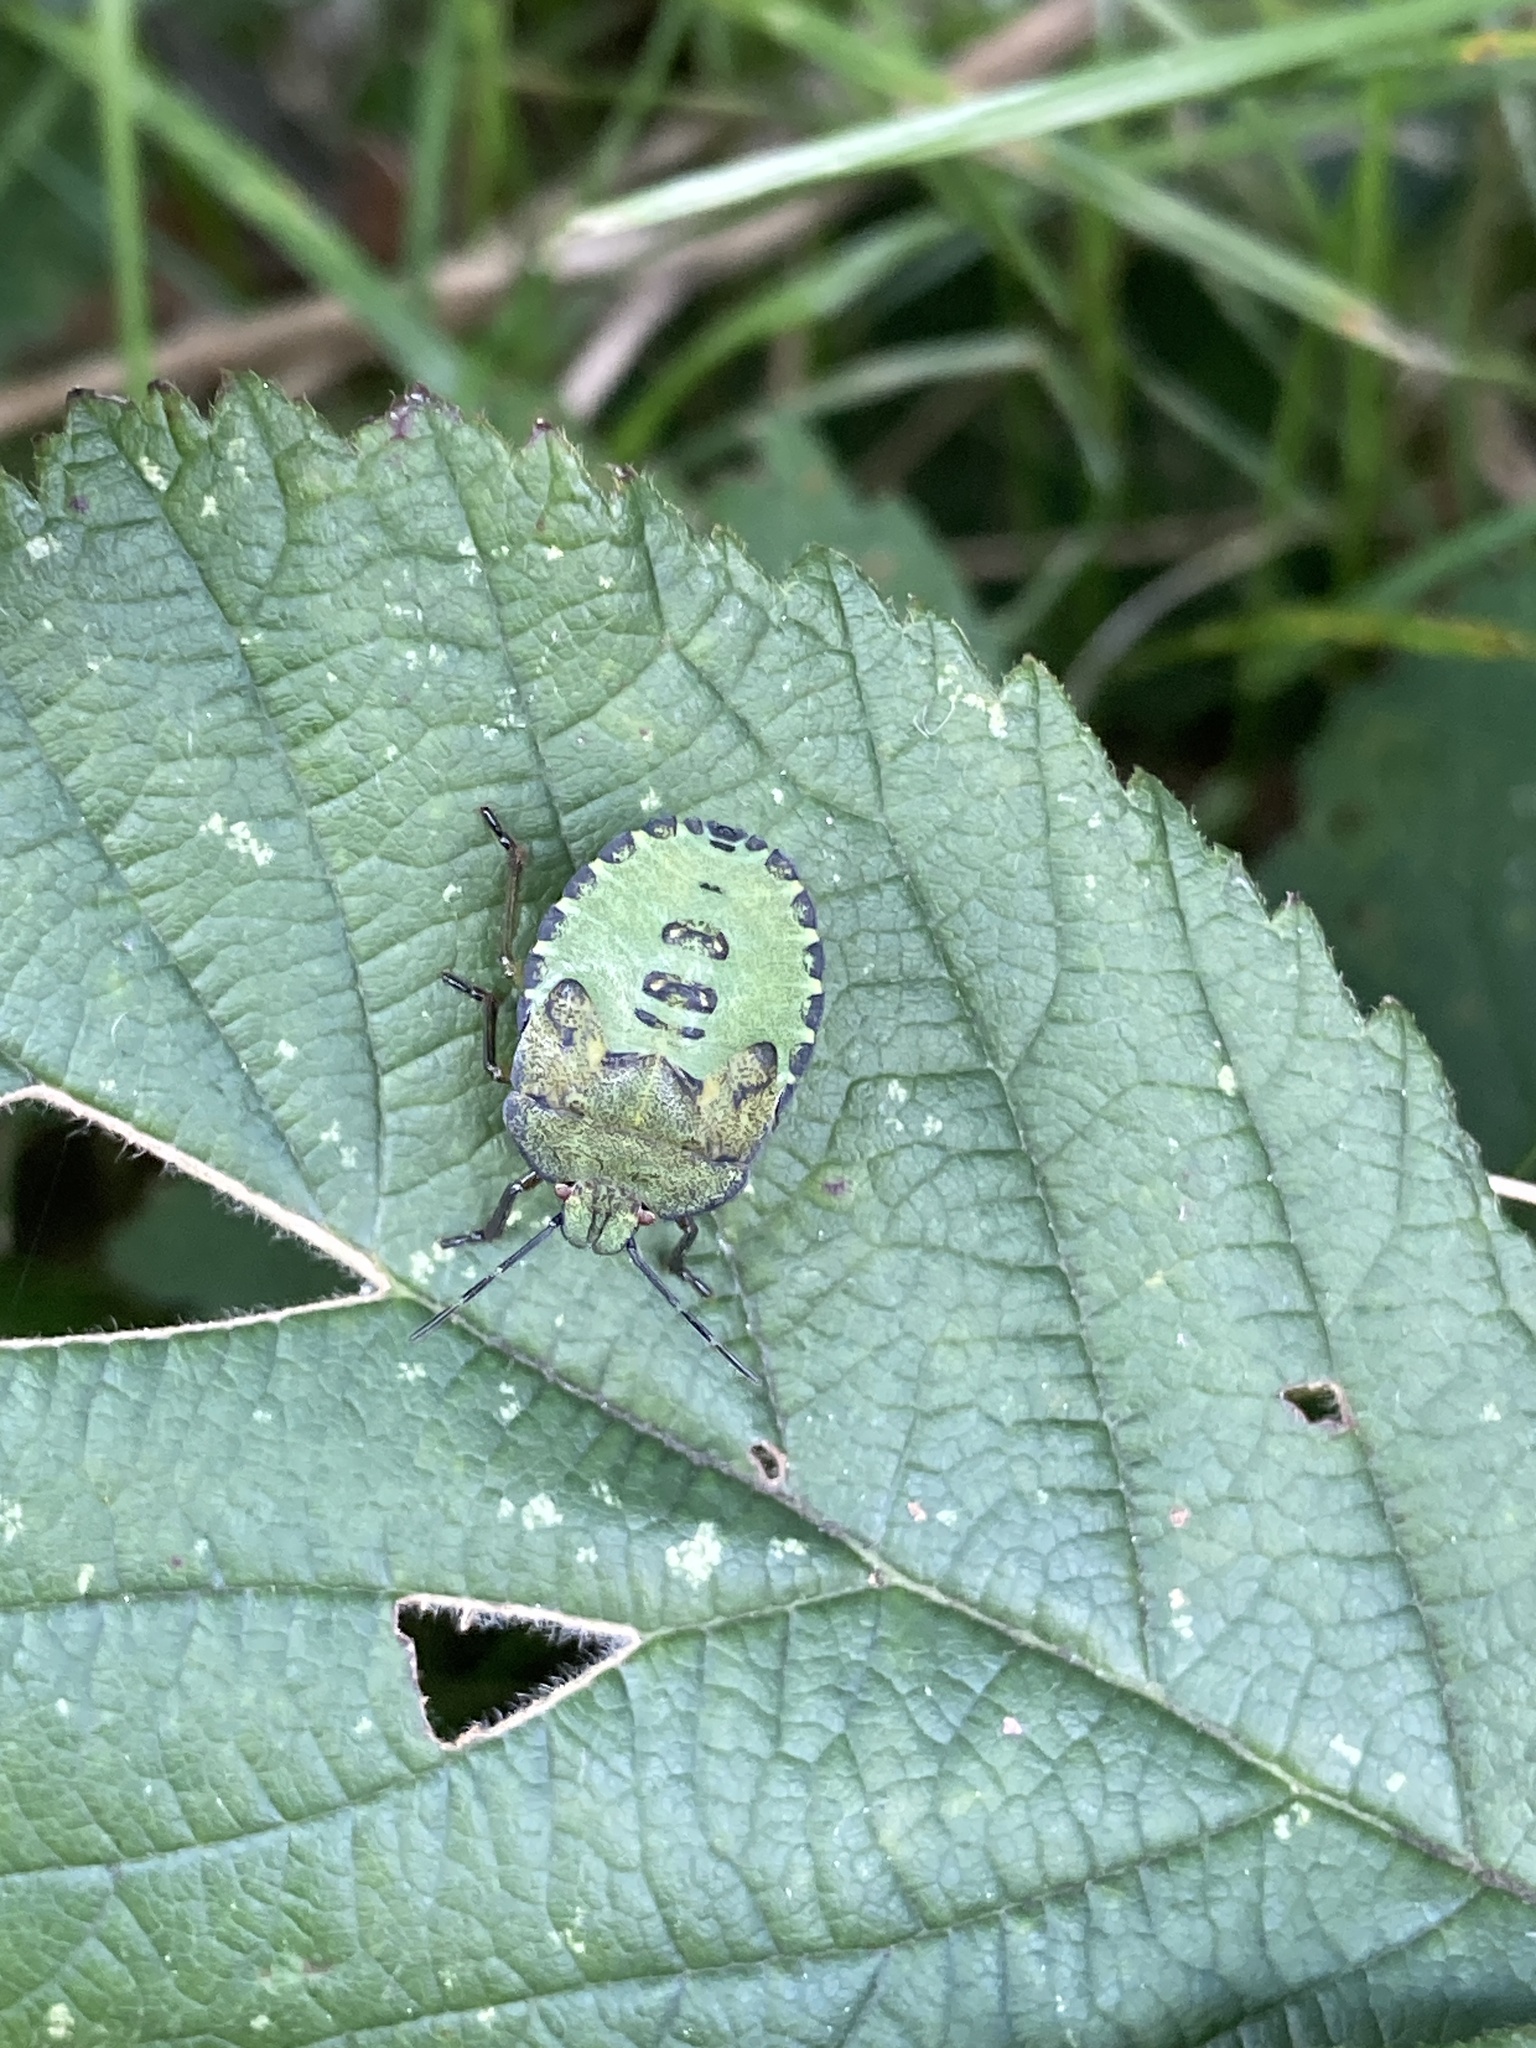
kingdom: Animalia
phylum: Arthropoda
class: Insecta
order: Hemiptera
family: Pentatomidae
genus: Palomena
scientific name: Palomena prasina
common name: Green shieldbug
